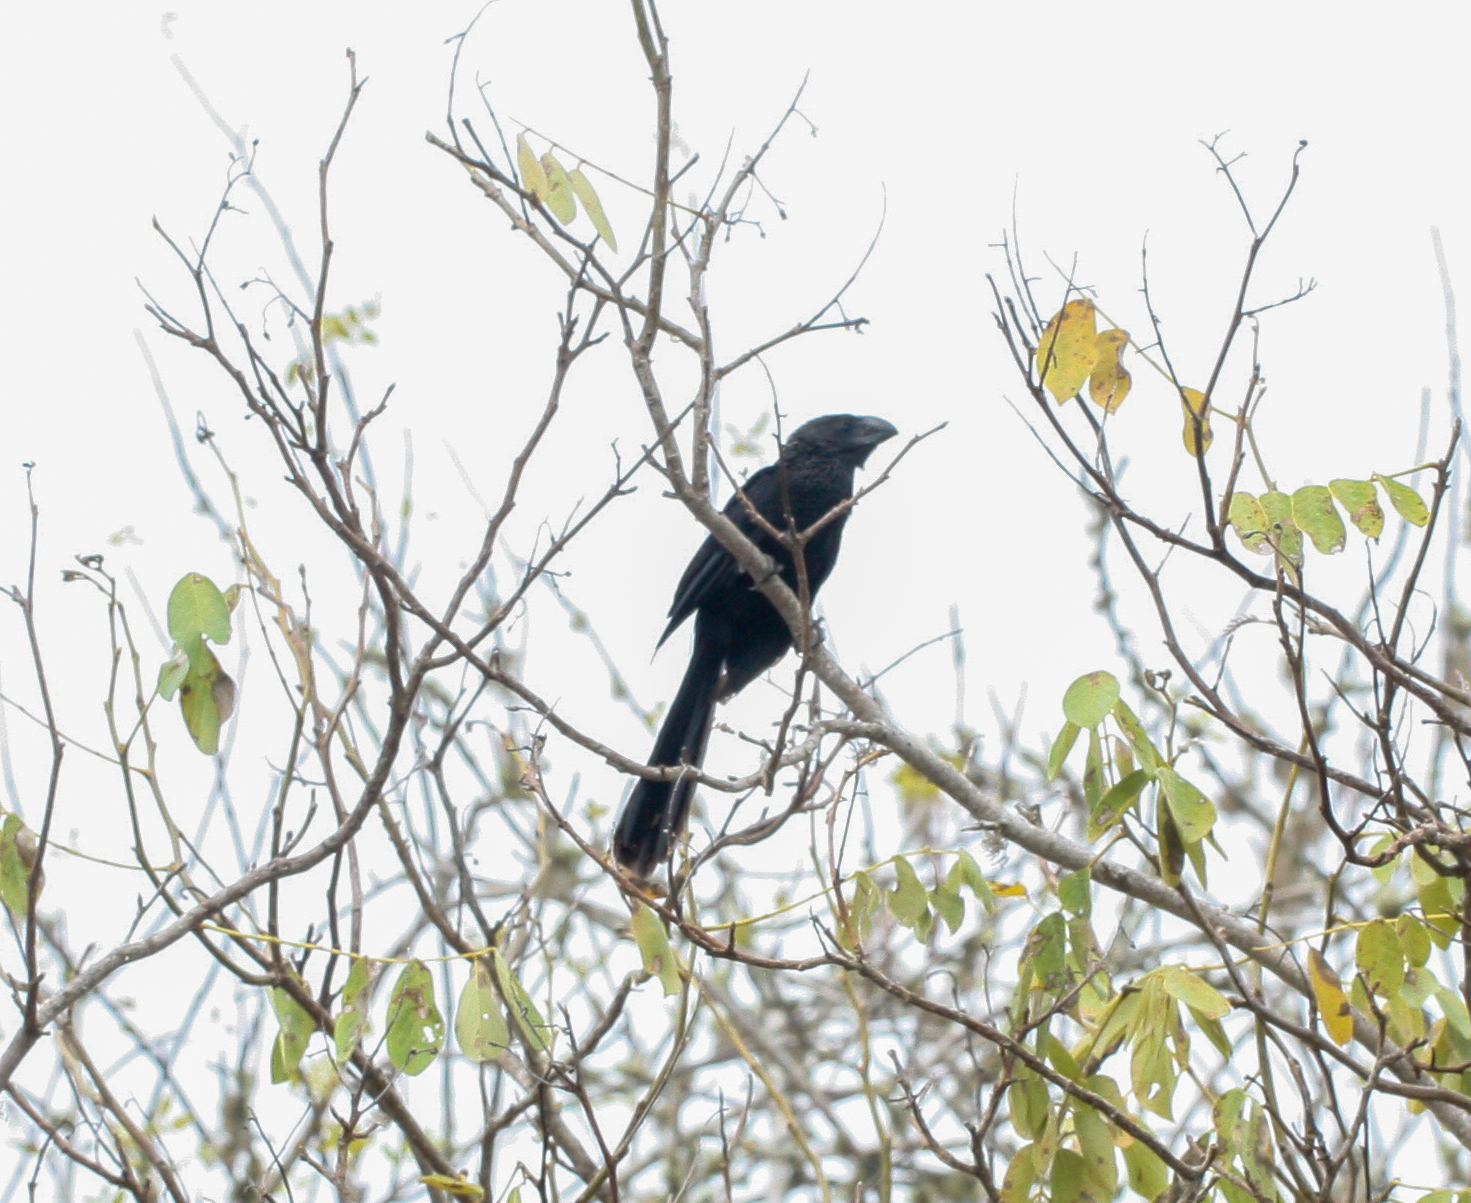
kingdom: Animalia
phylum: Chordata
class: Aves
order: Cuculiformes
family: Cuculidae
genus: Crotophaga
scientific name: Crotophaga ani
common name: Smooth-billed ani
